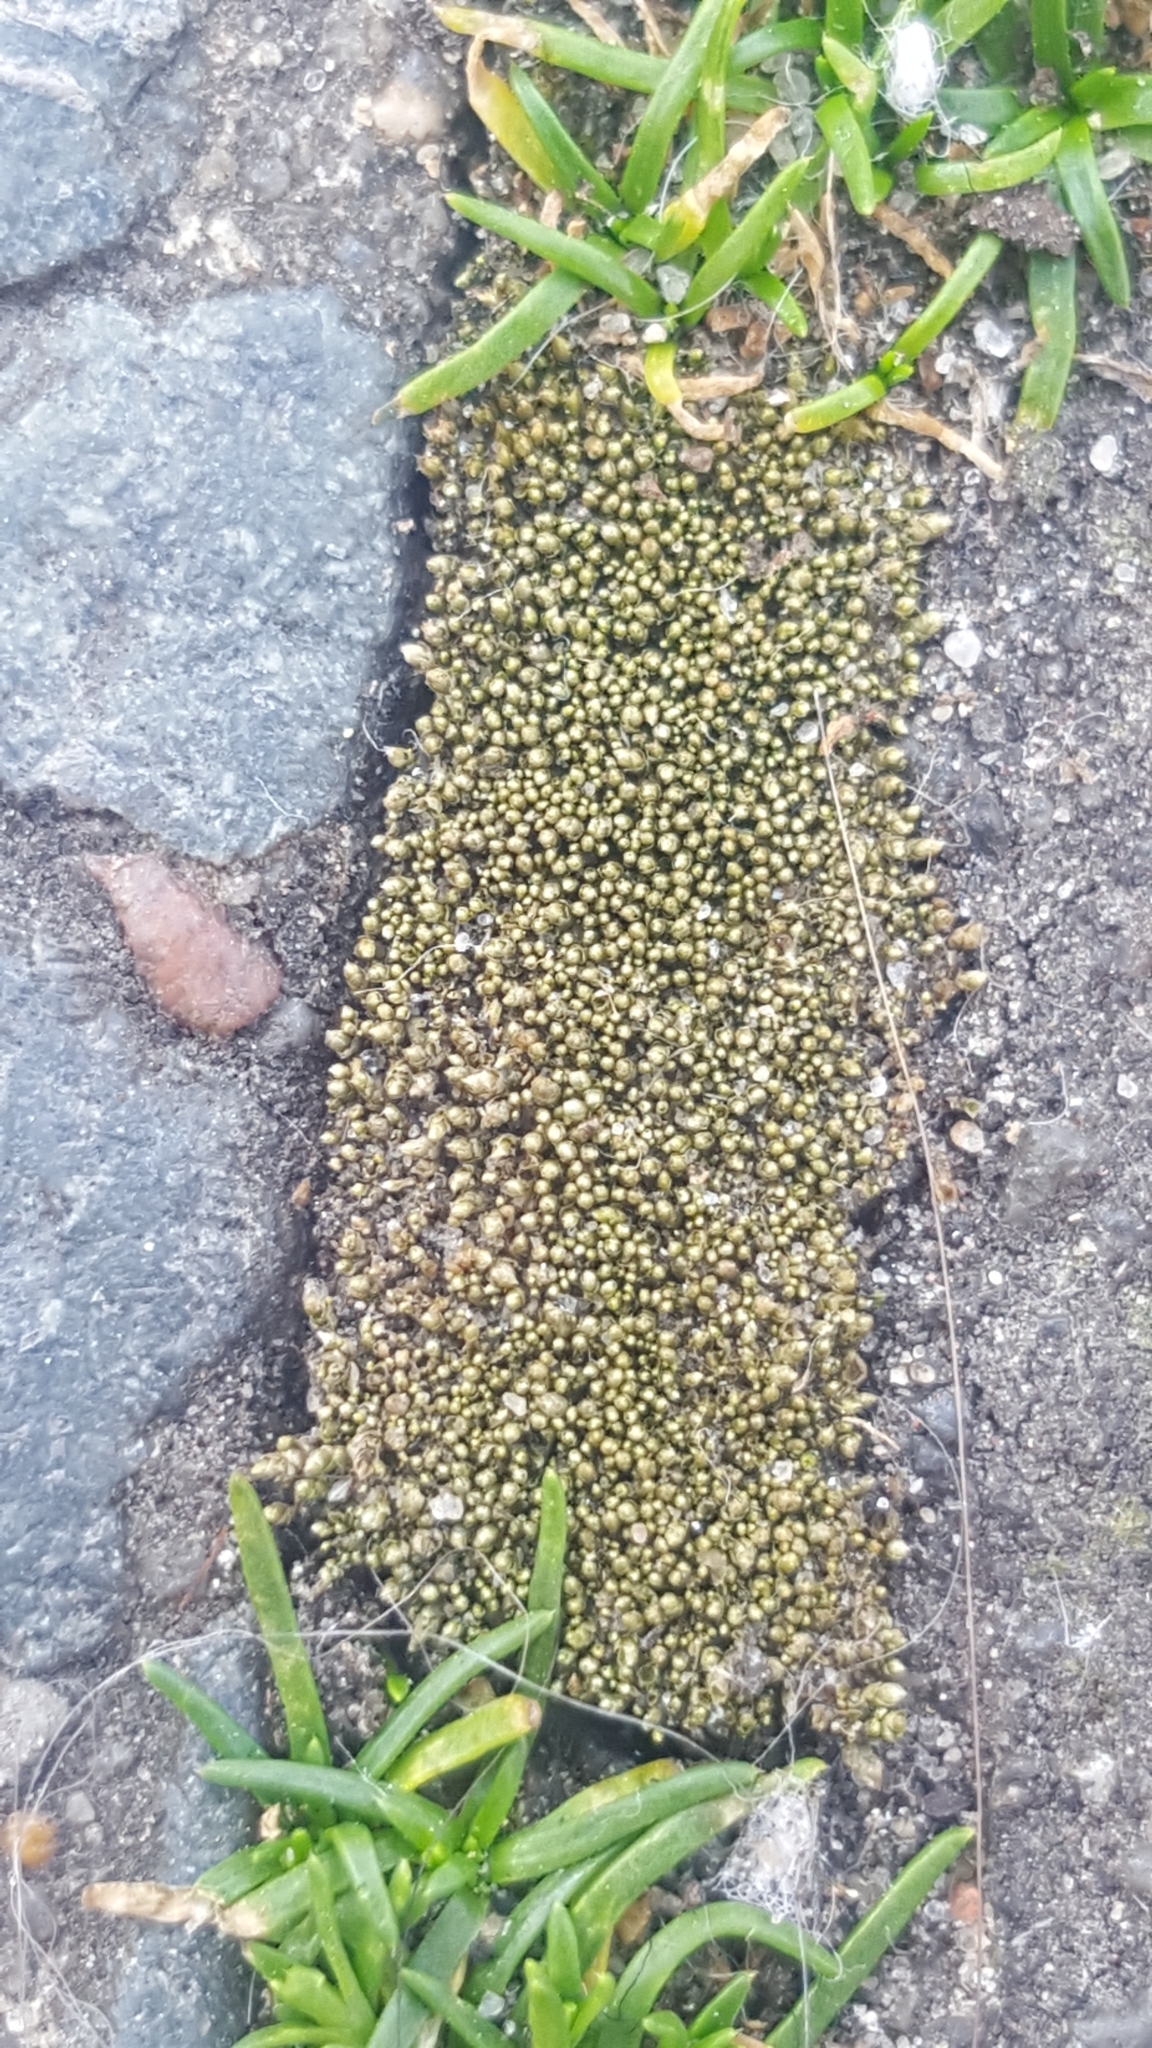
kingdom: Plantae
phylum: Bryophyta
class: Bryopsida
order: Bryales
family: Bryaceae
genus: Bryum
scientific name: Bryum argenteum
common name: Silver-moss
